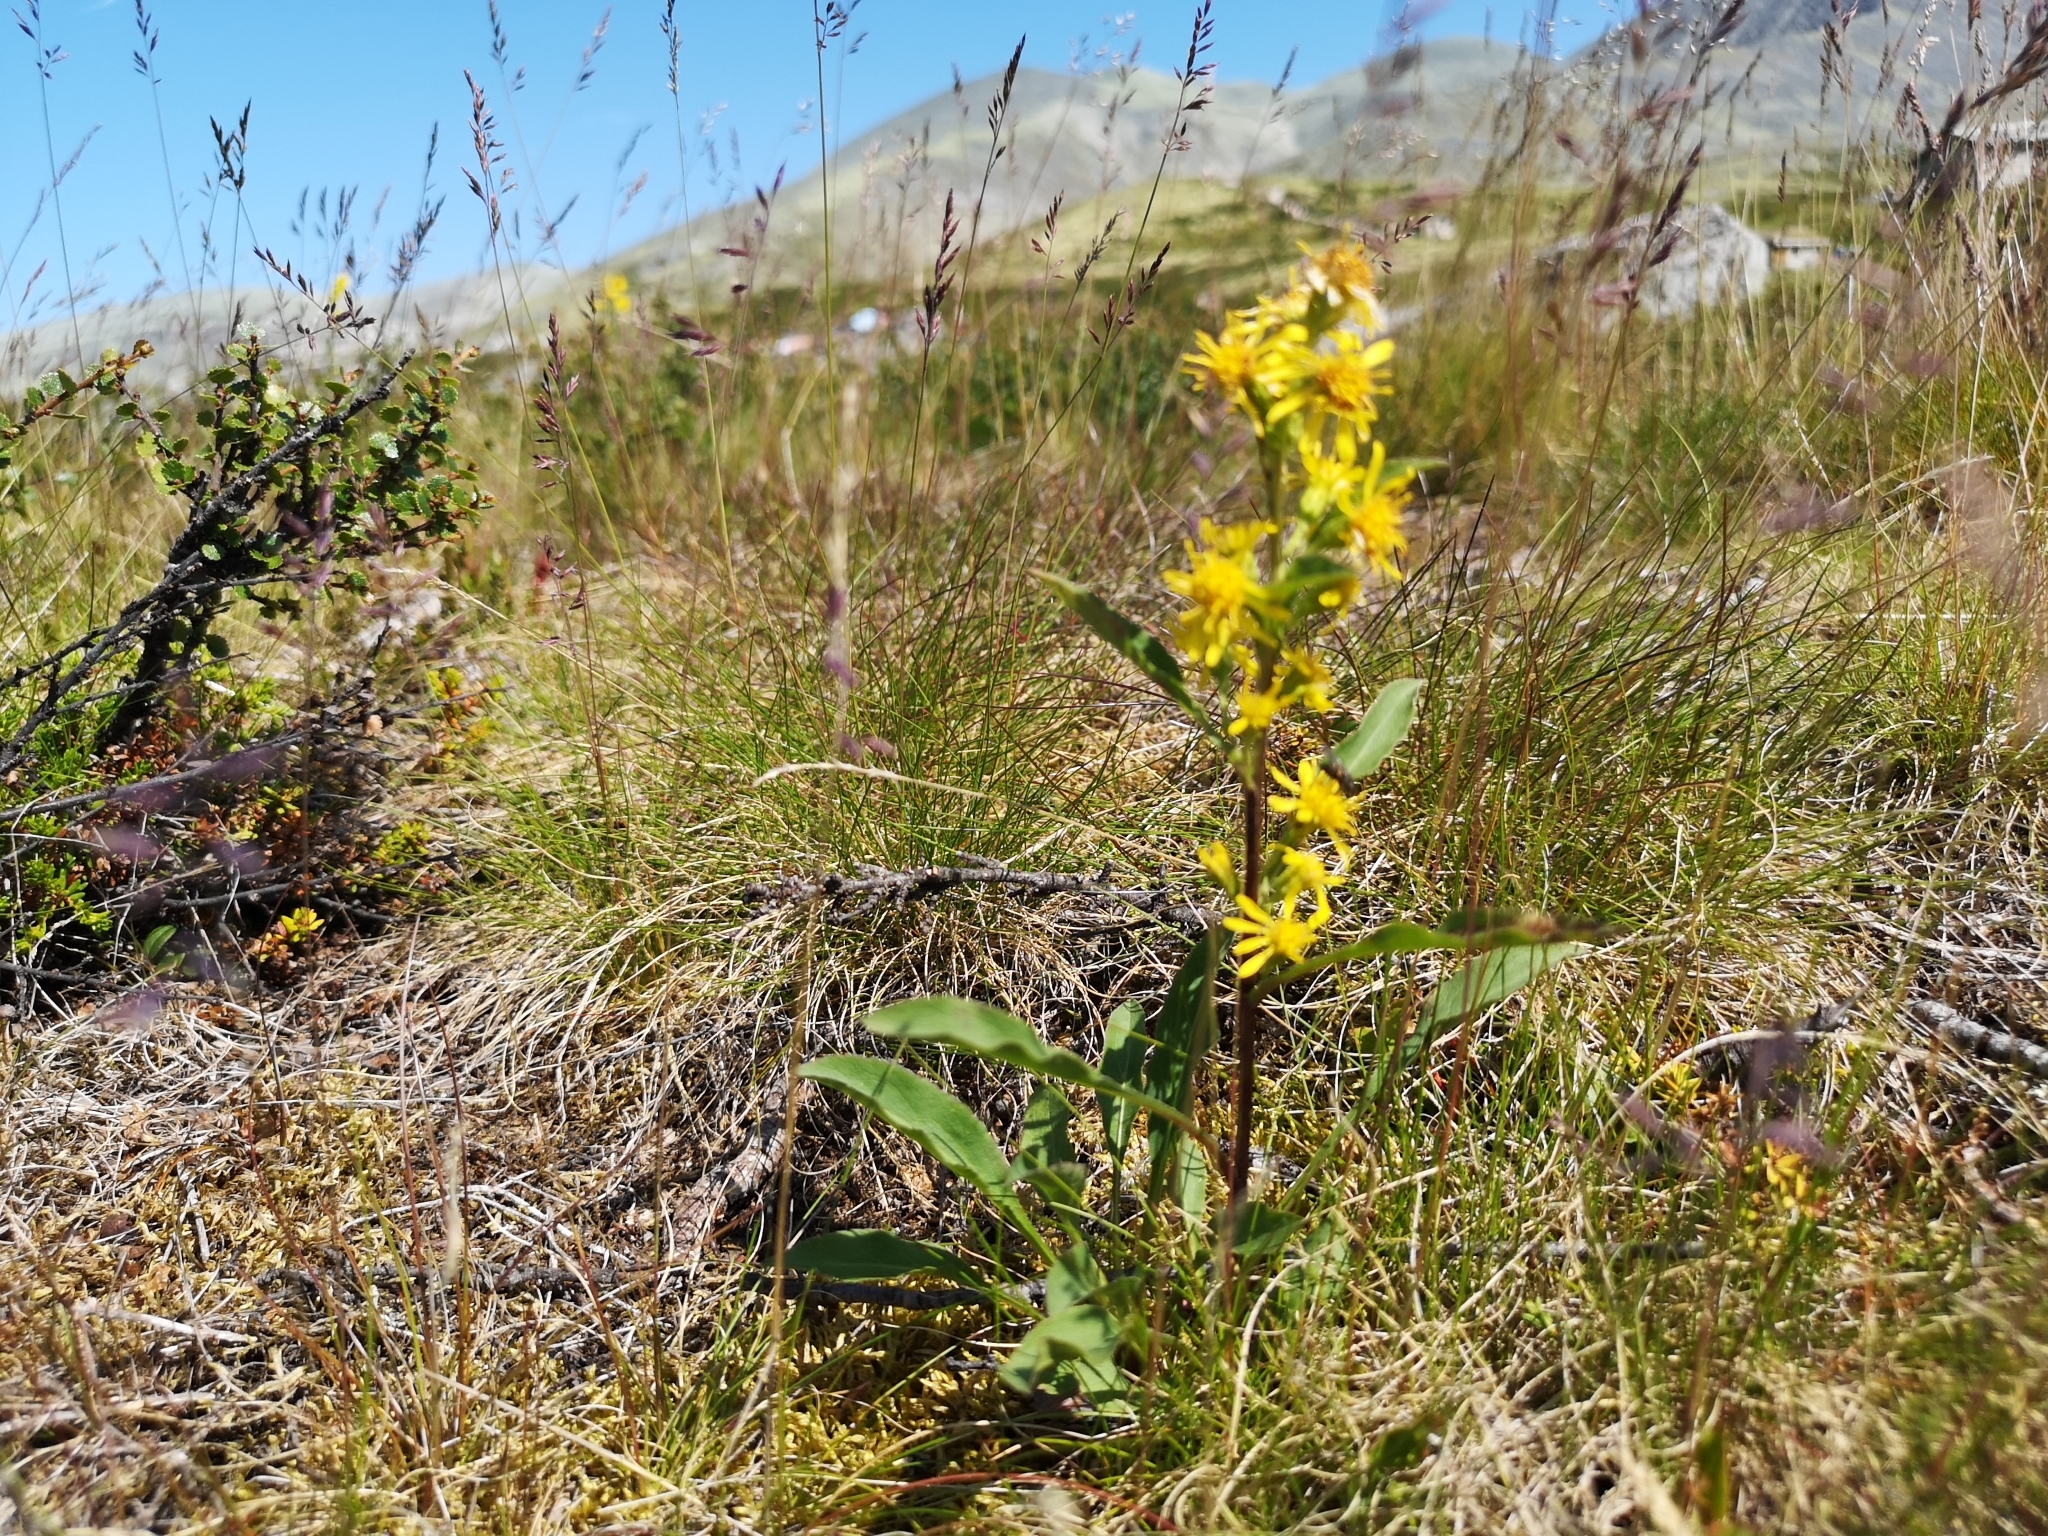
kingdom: Plantae
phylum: Tracheophyta
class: Magnoliopsida
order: Asterales
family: Asteraceae
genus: Solidago
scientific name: Solidago virgaurea
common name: Goldenrod
